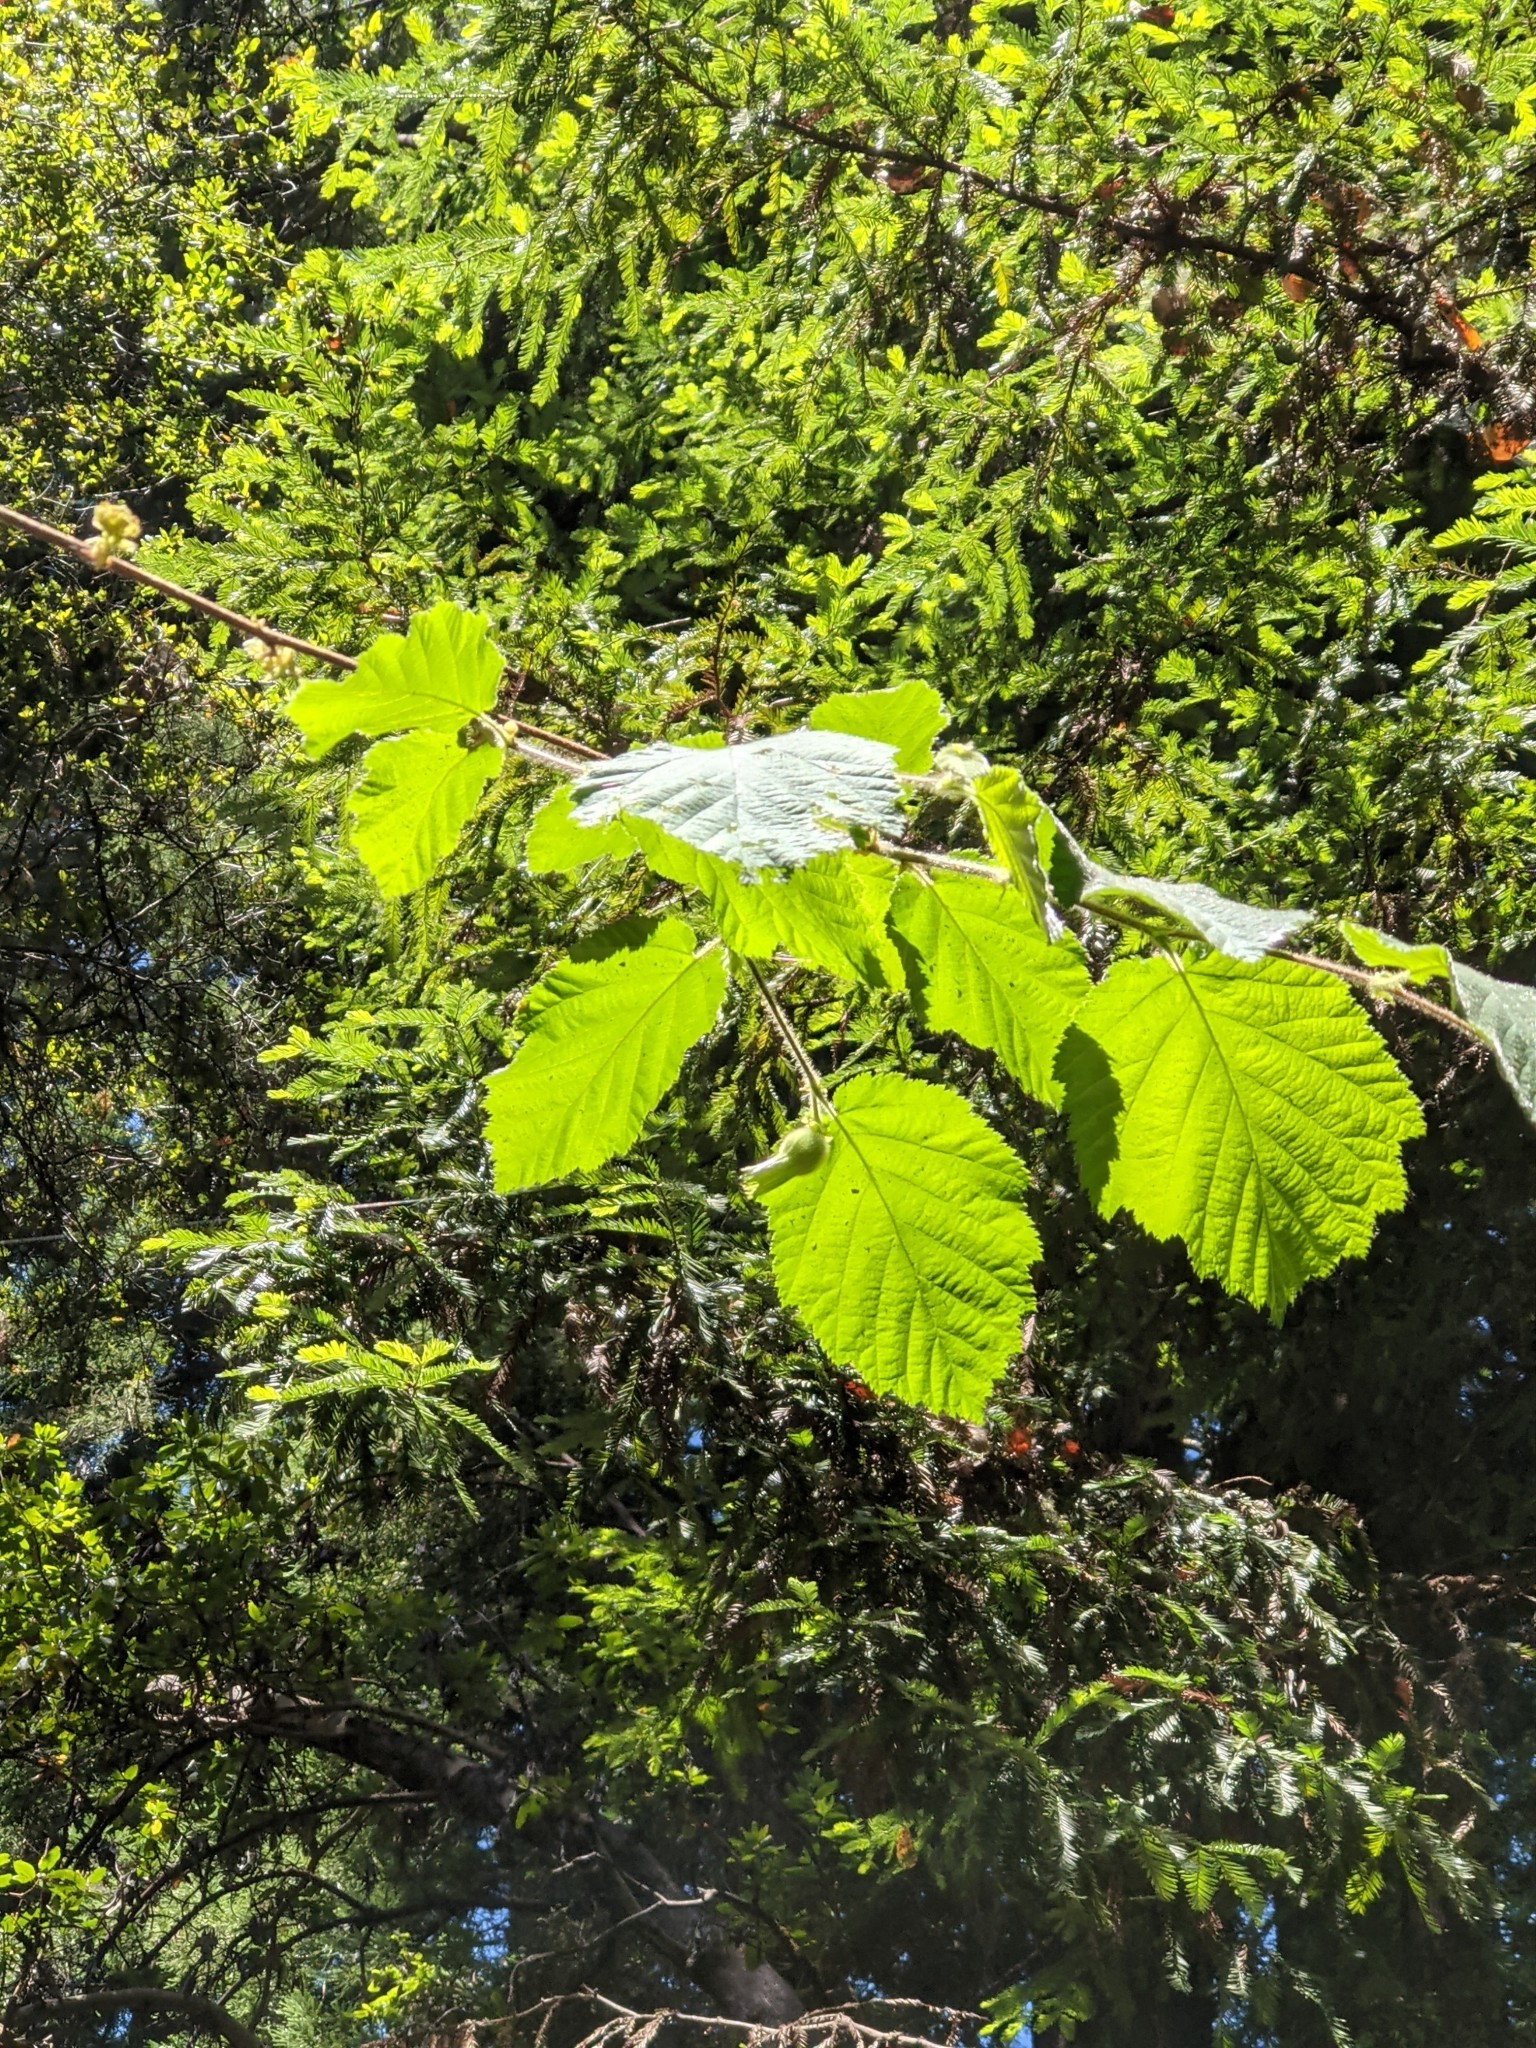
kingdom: Plantae
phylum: Tracheophyta
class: Magnoliopsida
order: Fagales
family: Betulaceae
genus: Corylus
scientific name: Corylus cornuta
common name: Beaked hazel
